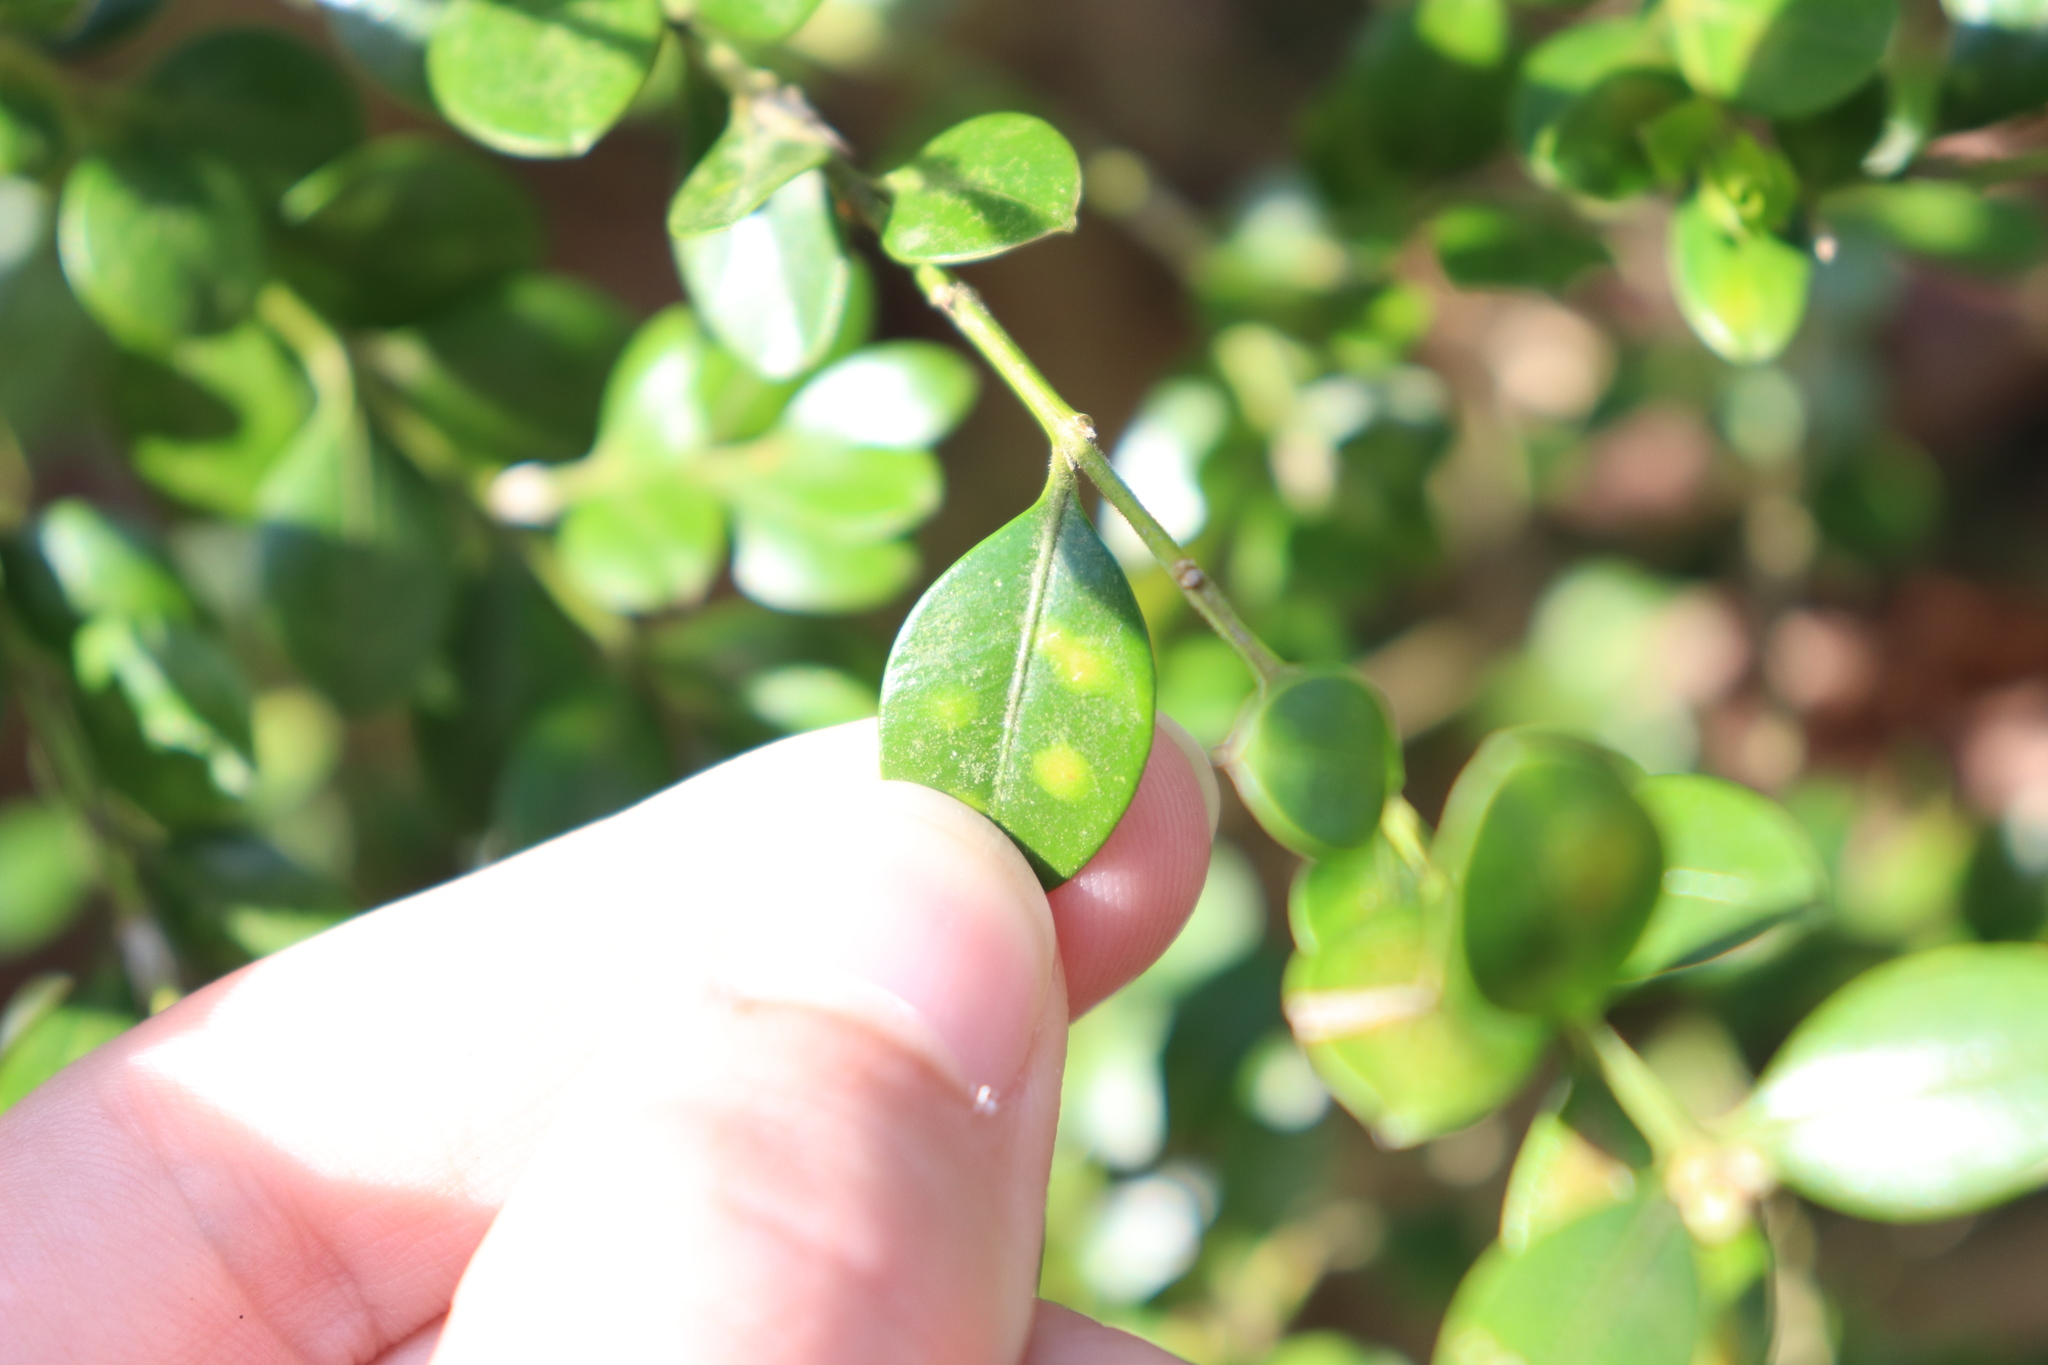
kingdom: Animalia
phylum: Arthropoda
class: Insecta
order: Diptera
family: Cecidomyiidae
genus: Monarthropalpus
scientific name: Monarthropalpus flavus
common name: Boxwood leafminer
